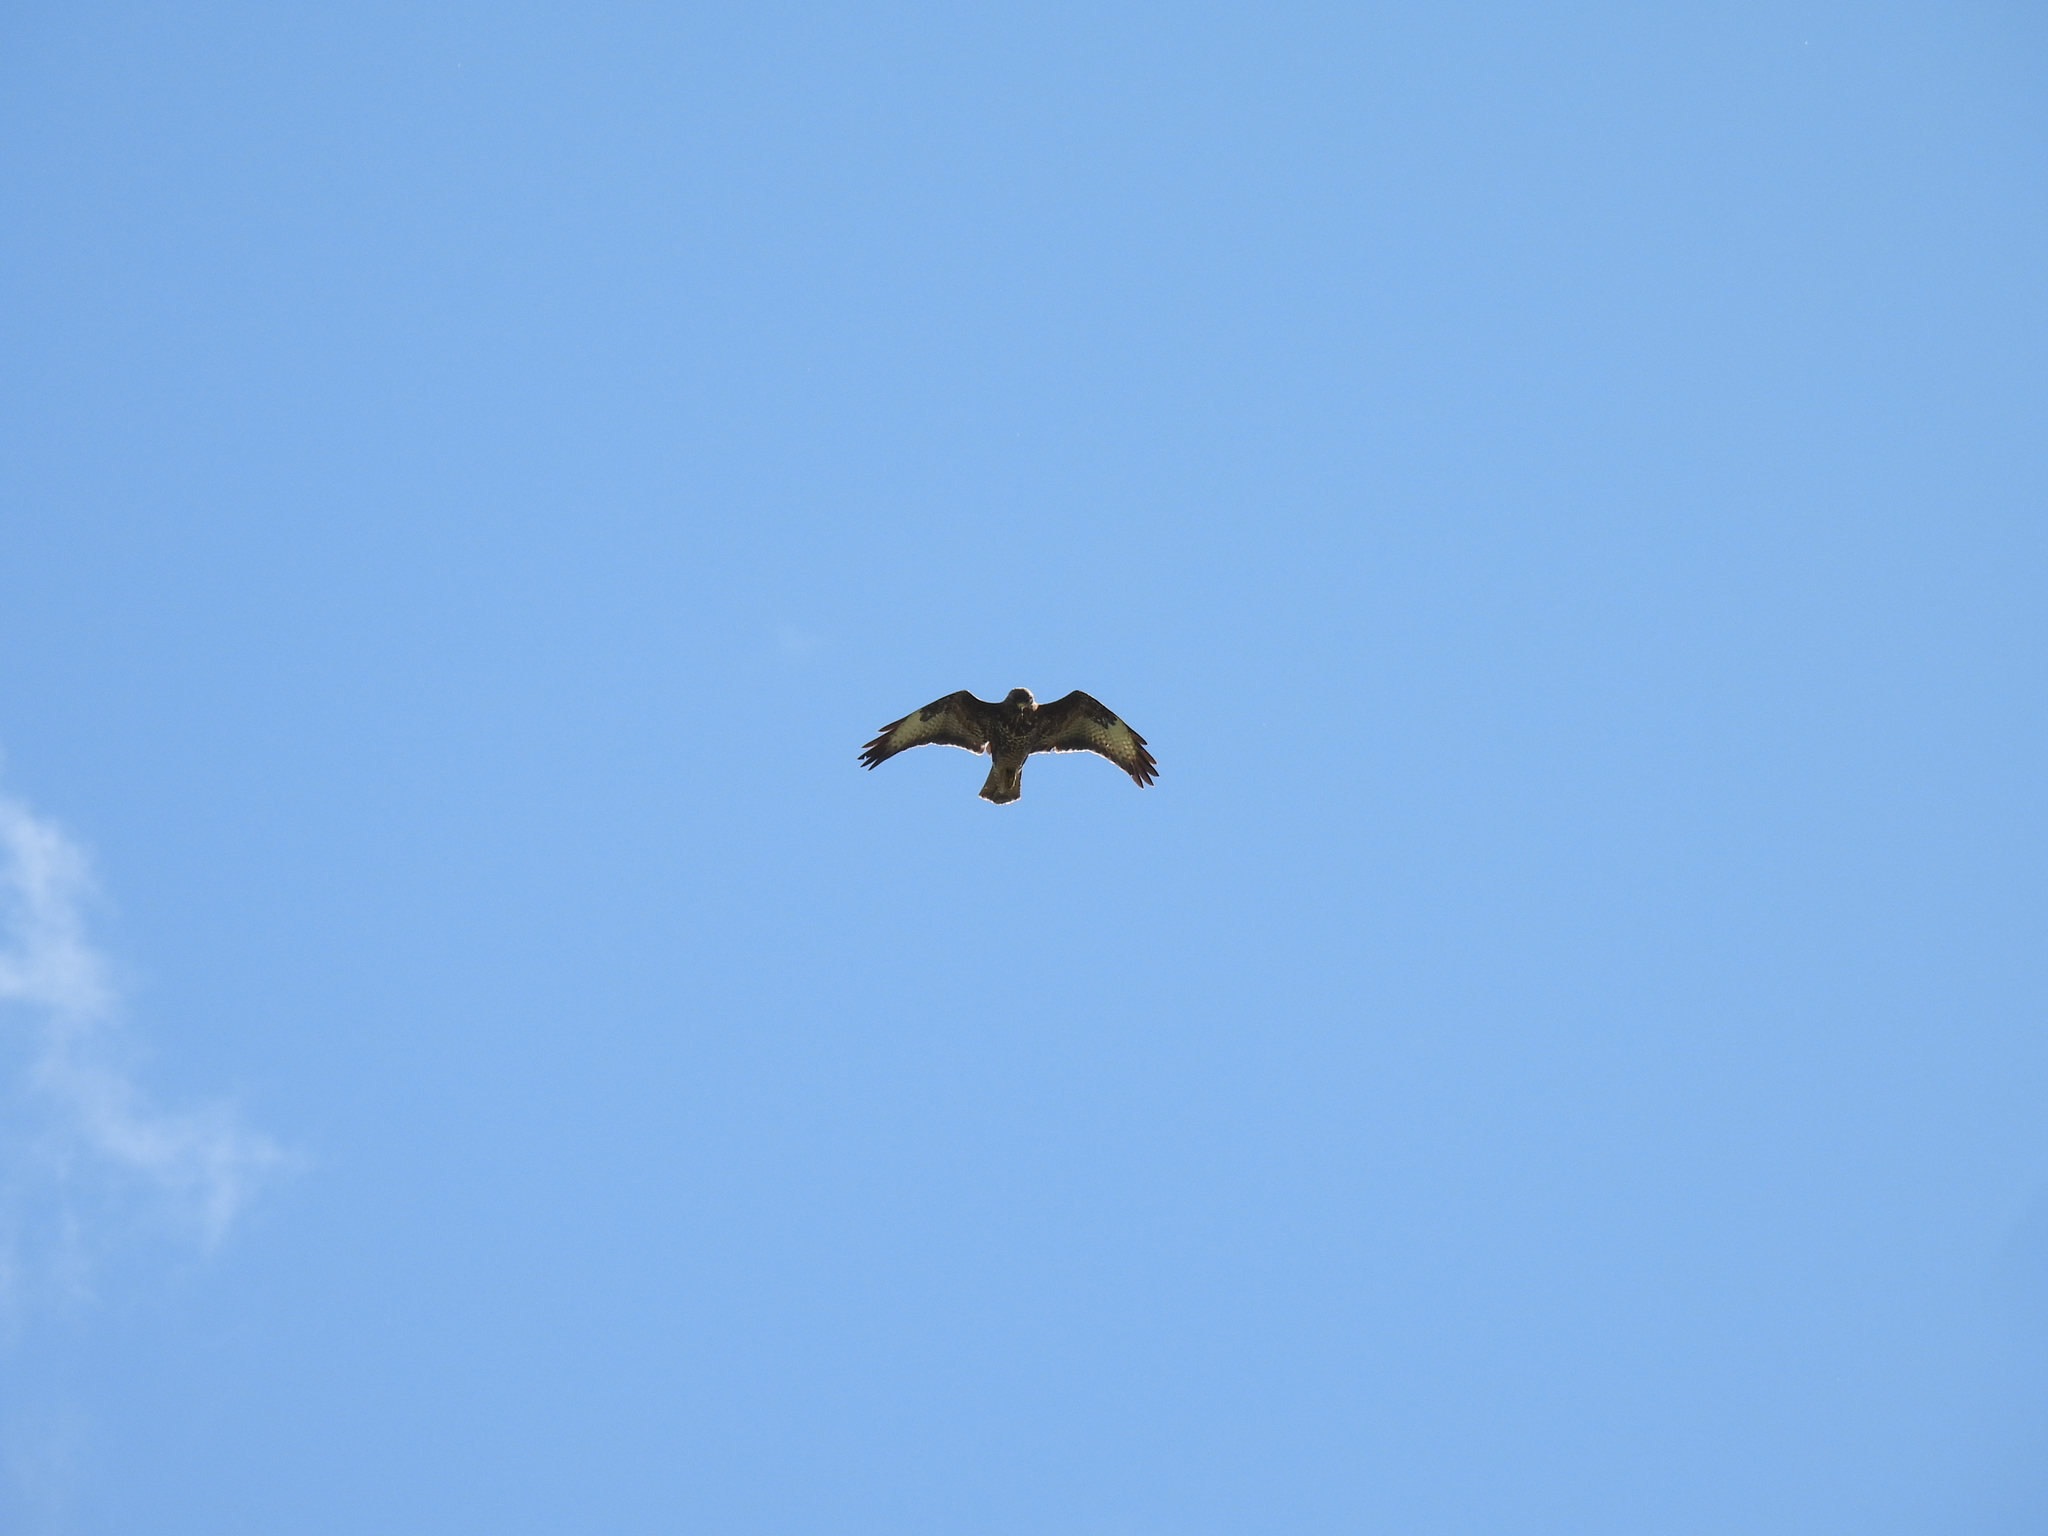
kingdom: Animalia
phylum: Chordata
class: Aves
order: Accipitriformes
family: Accipitridae
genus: Buteo
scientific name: Buteo buteo
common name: Common buzzard
